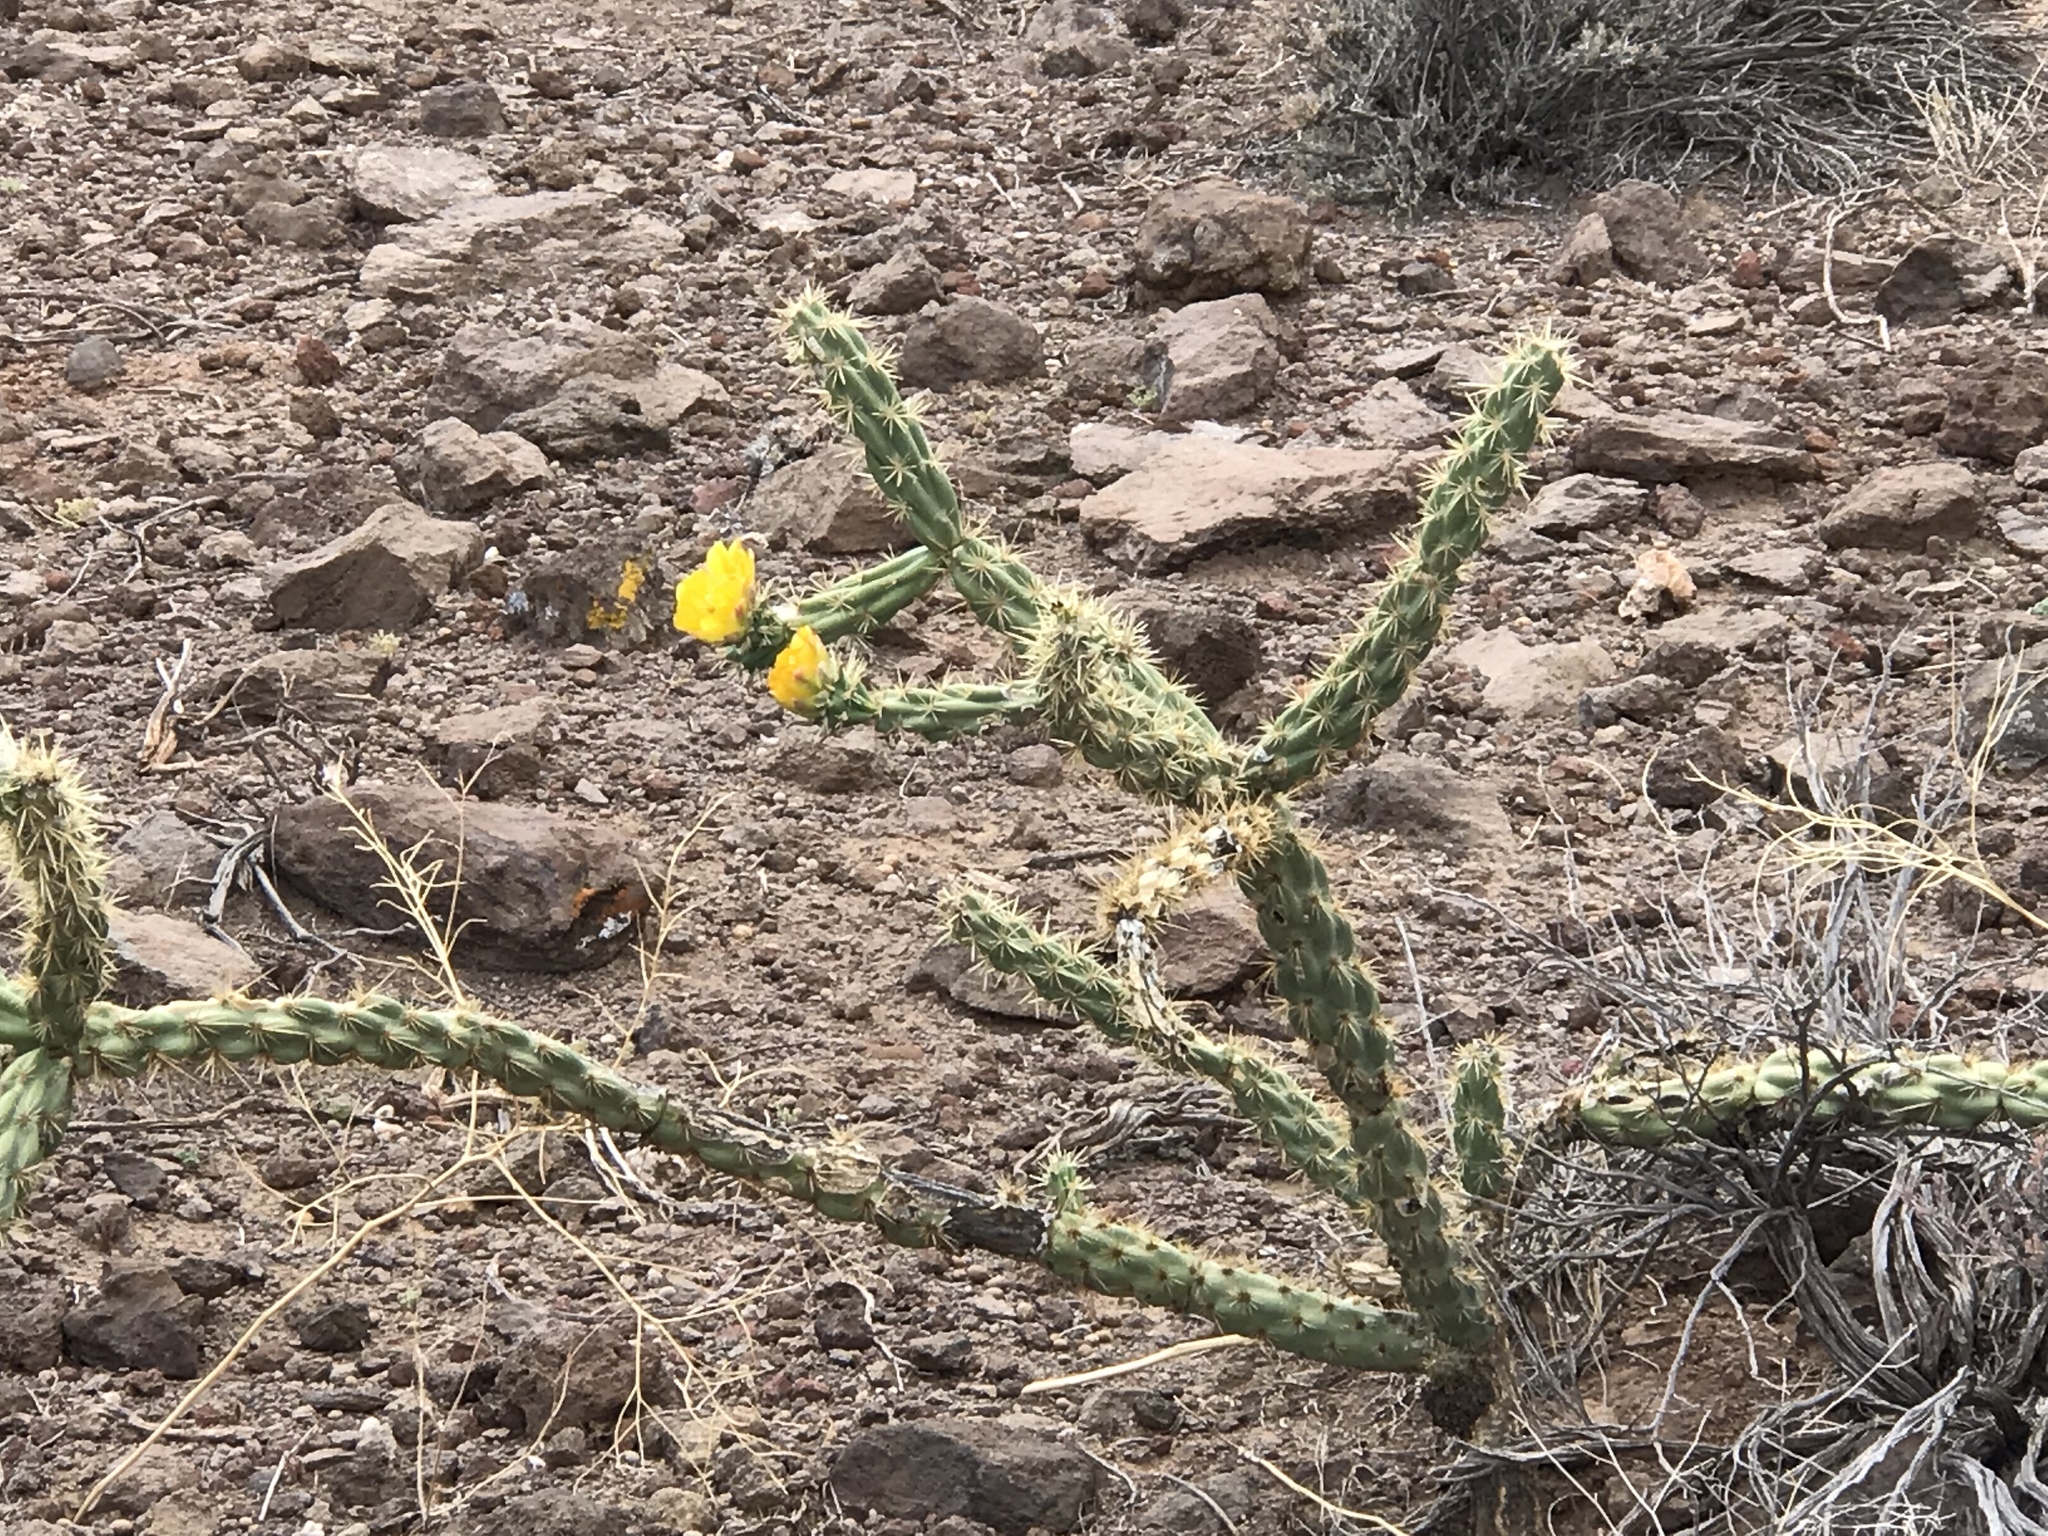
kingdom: Plantae
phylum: Tracheophyta
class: Magnoliopsida
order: Caryophyllales
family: Cactaceae
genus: Cylindropuntia
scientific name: Cylindropuntia acanthocarpa
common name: Buckhorn cholla
